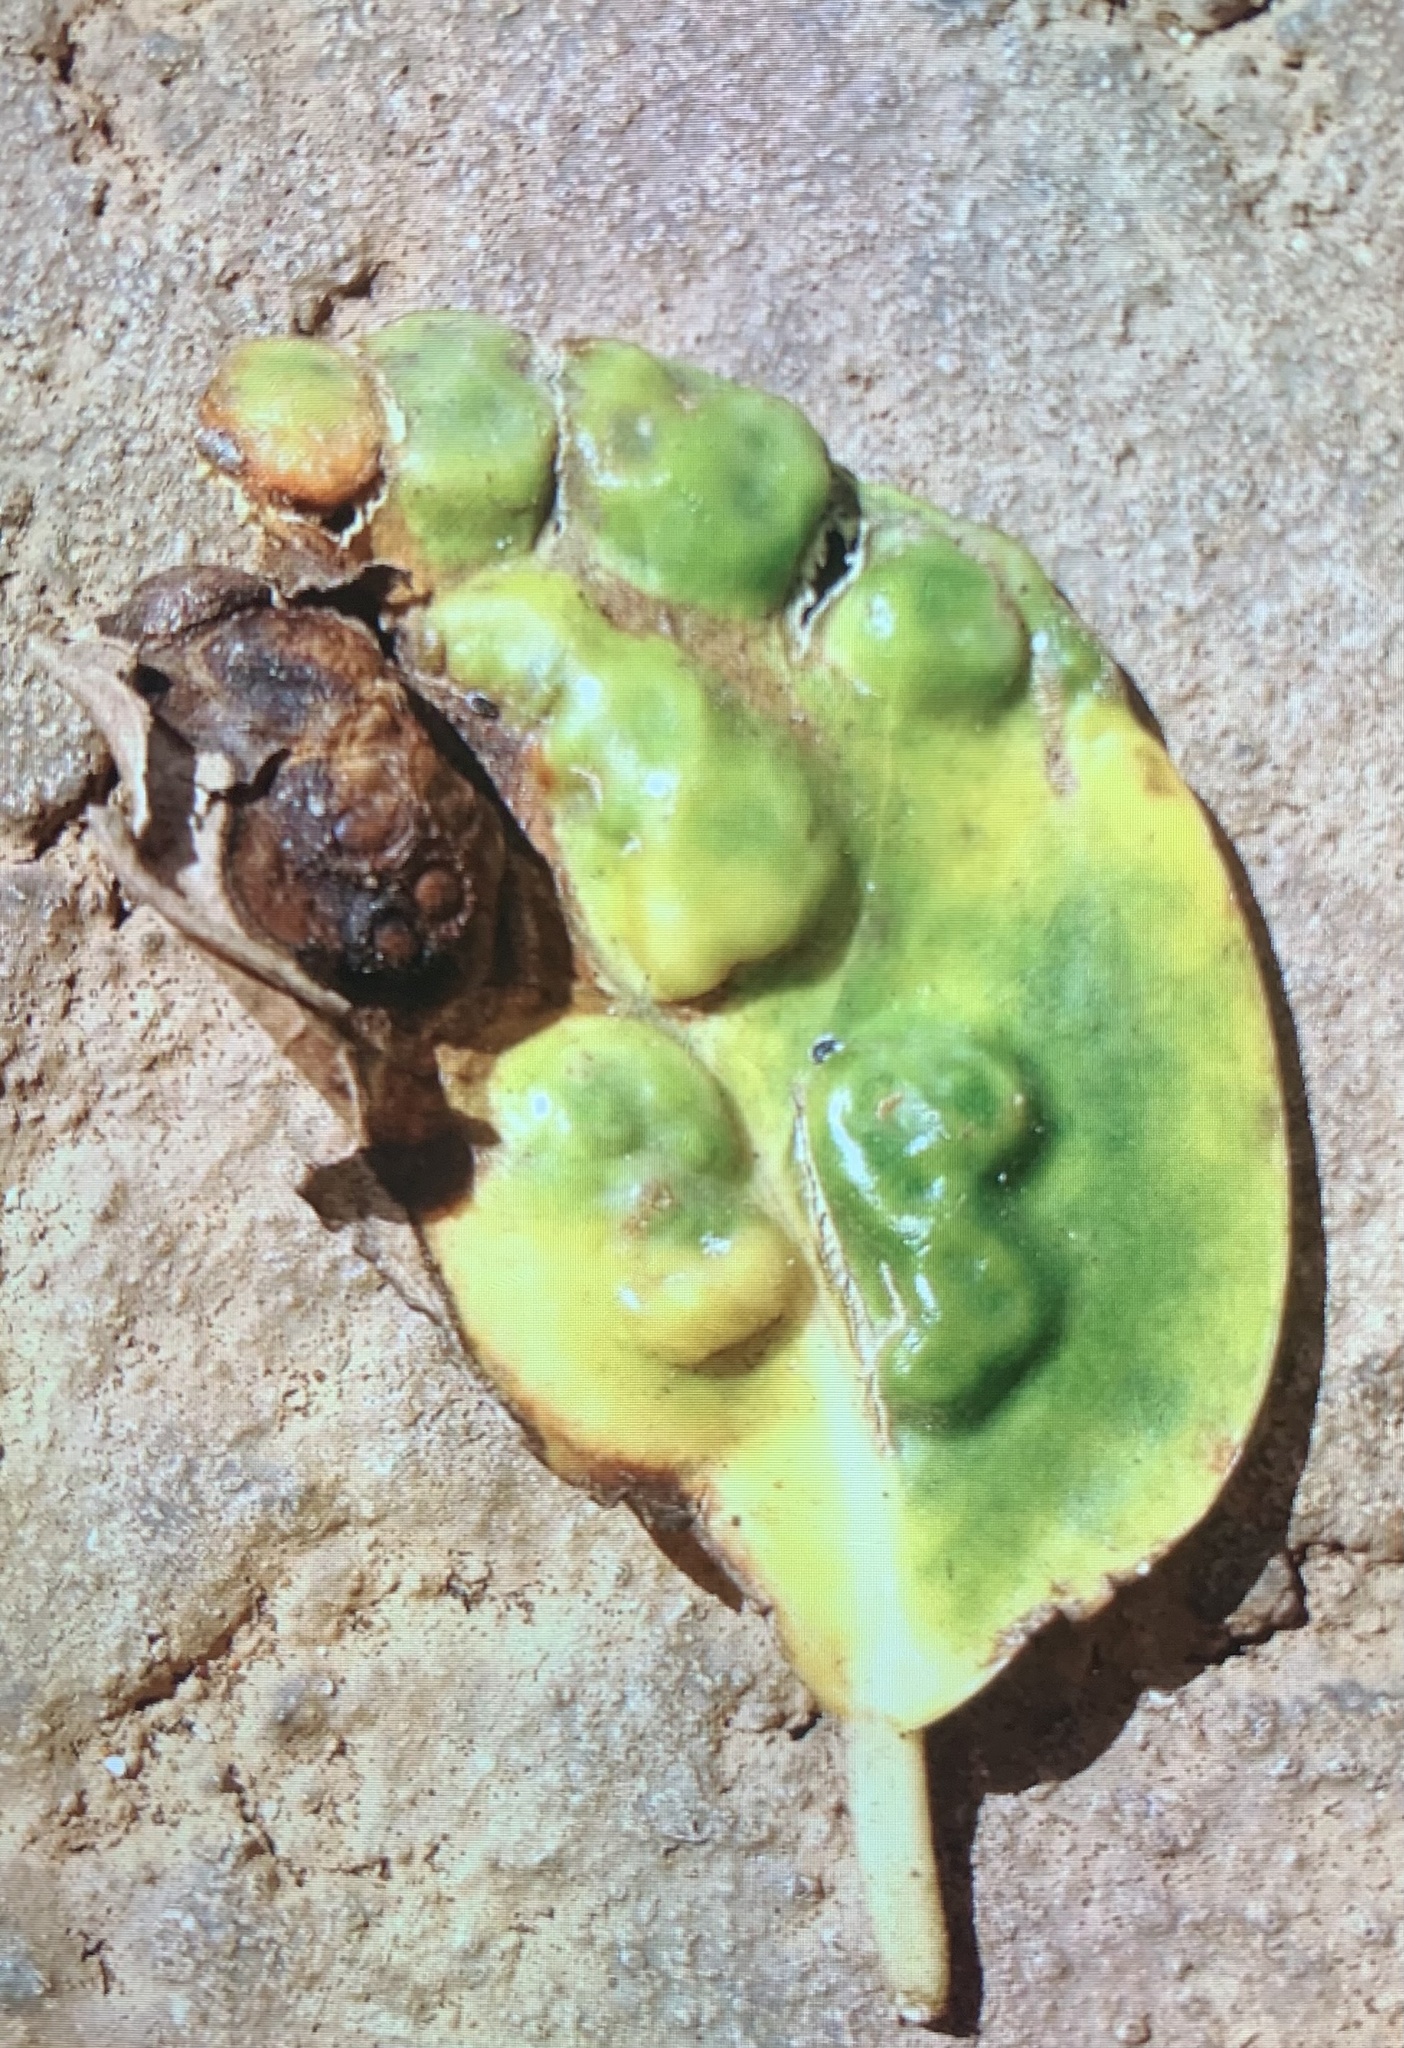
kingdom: Plantae
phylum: Tracheophyta
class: Magnoliopsida
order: Rosales
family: Moraceae
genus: Ficus
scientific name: Ficus microcarpa
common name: Chinese banyan
